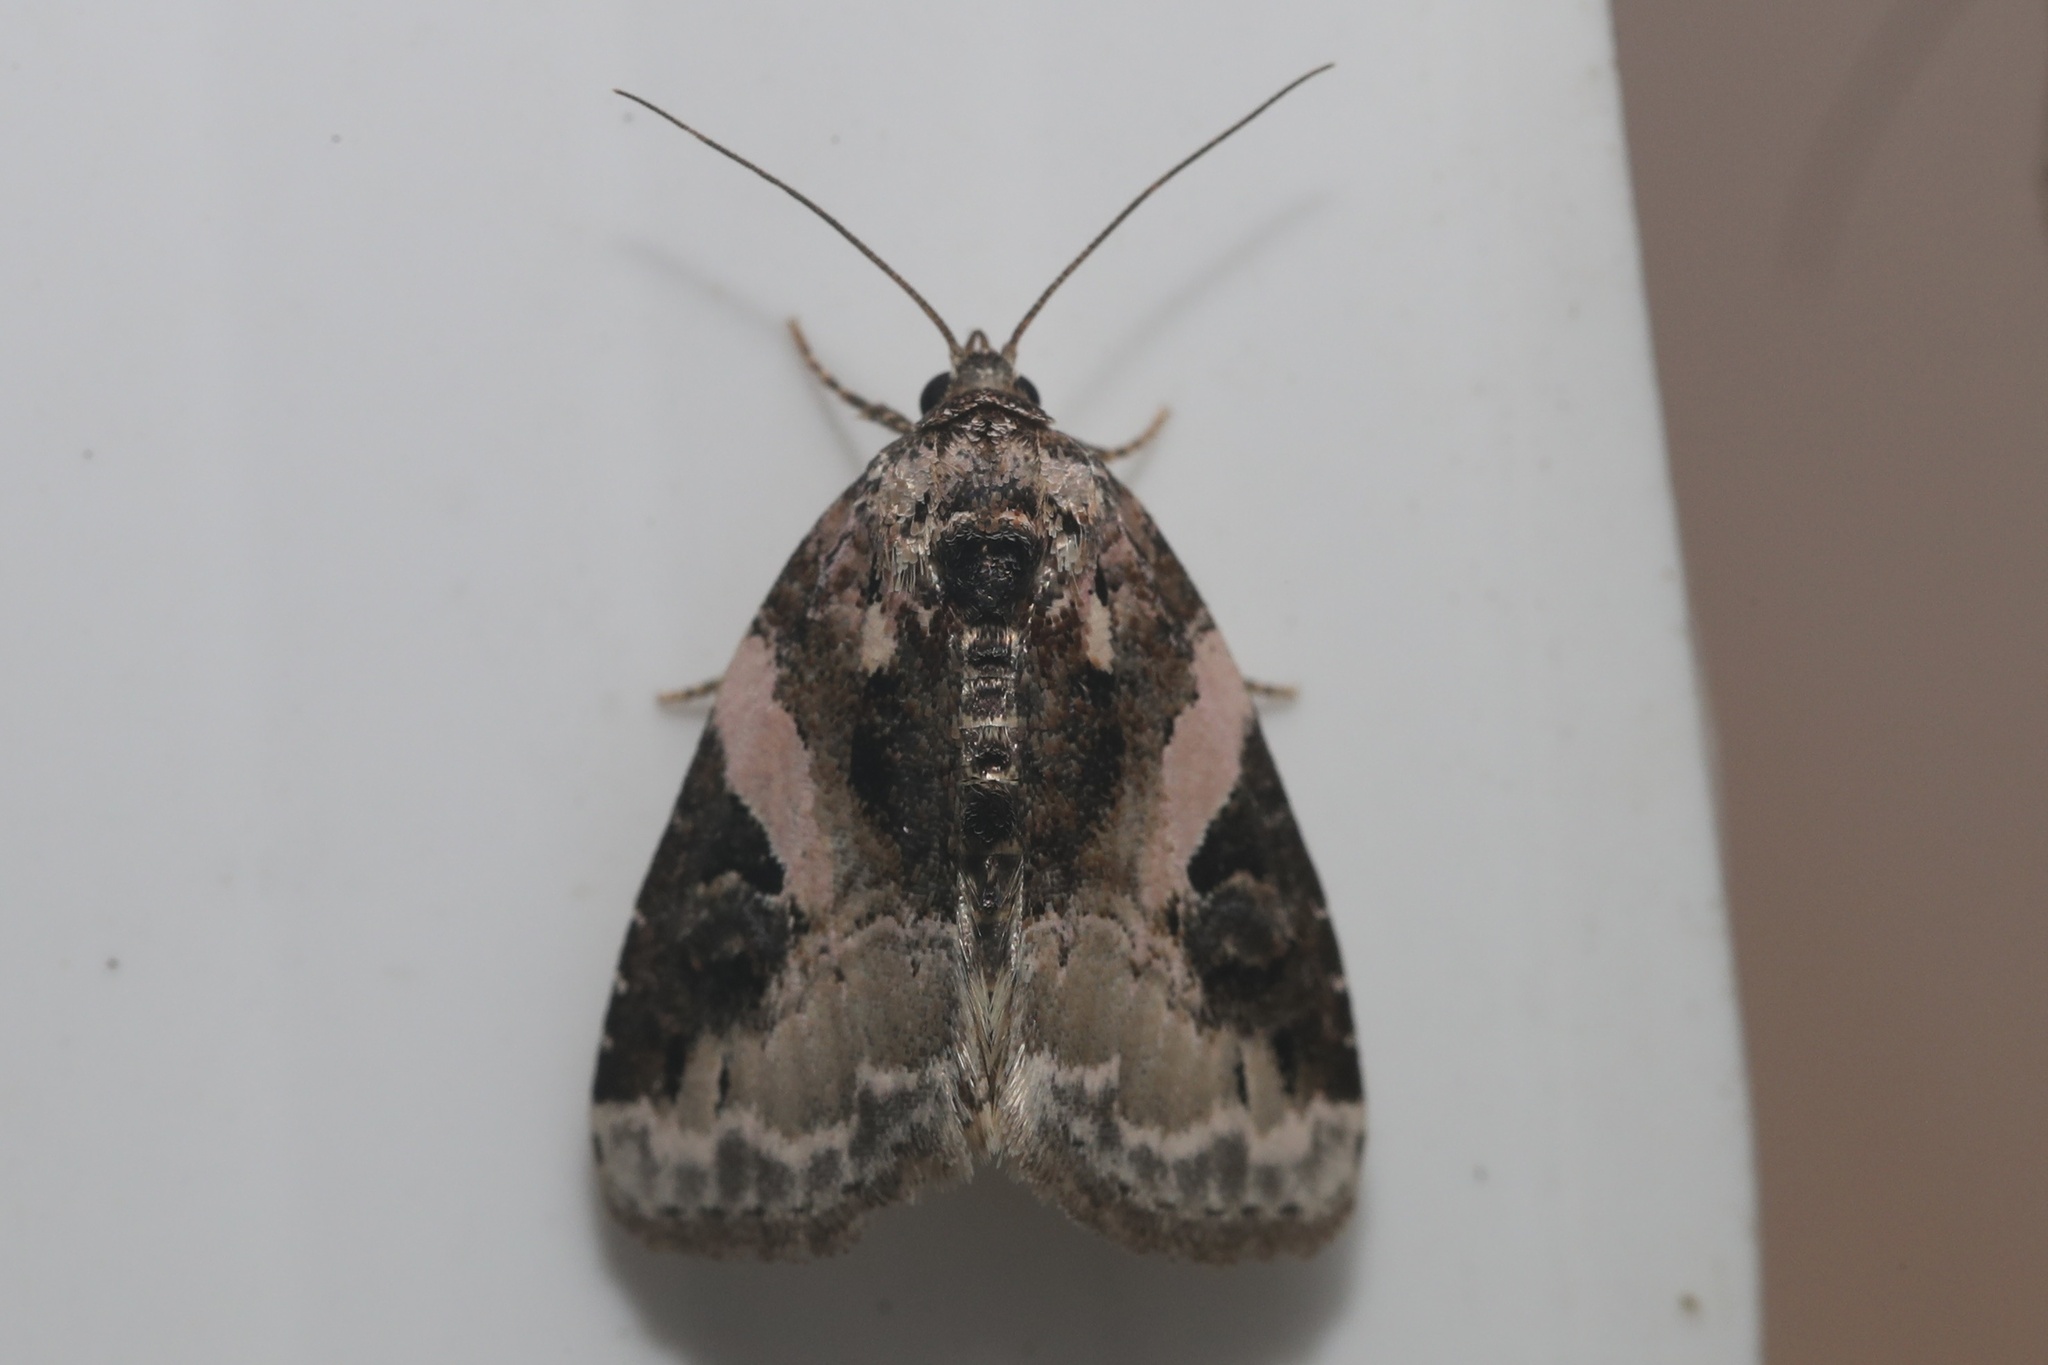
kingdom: Animalia
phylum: Arthropoda
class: Insecta
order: Lepidoptera
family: Noctuidae
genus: Pseudeustrotia
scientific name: Pseudeustrotia carneola
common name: Pink-barred lithacodia moth
